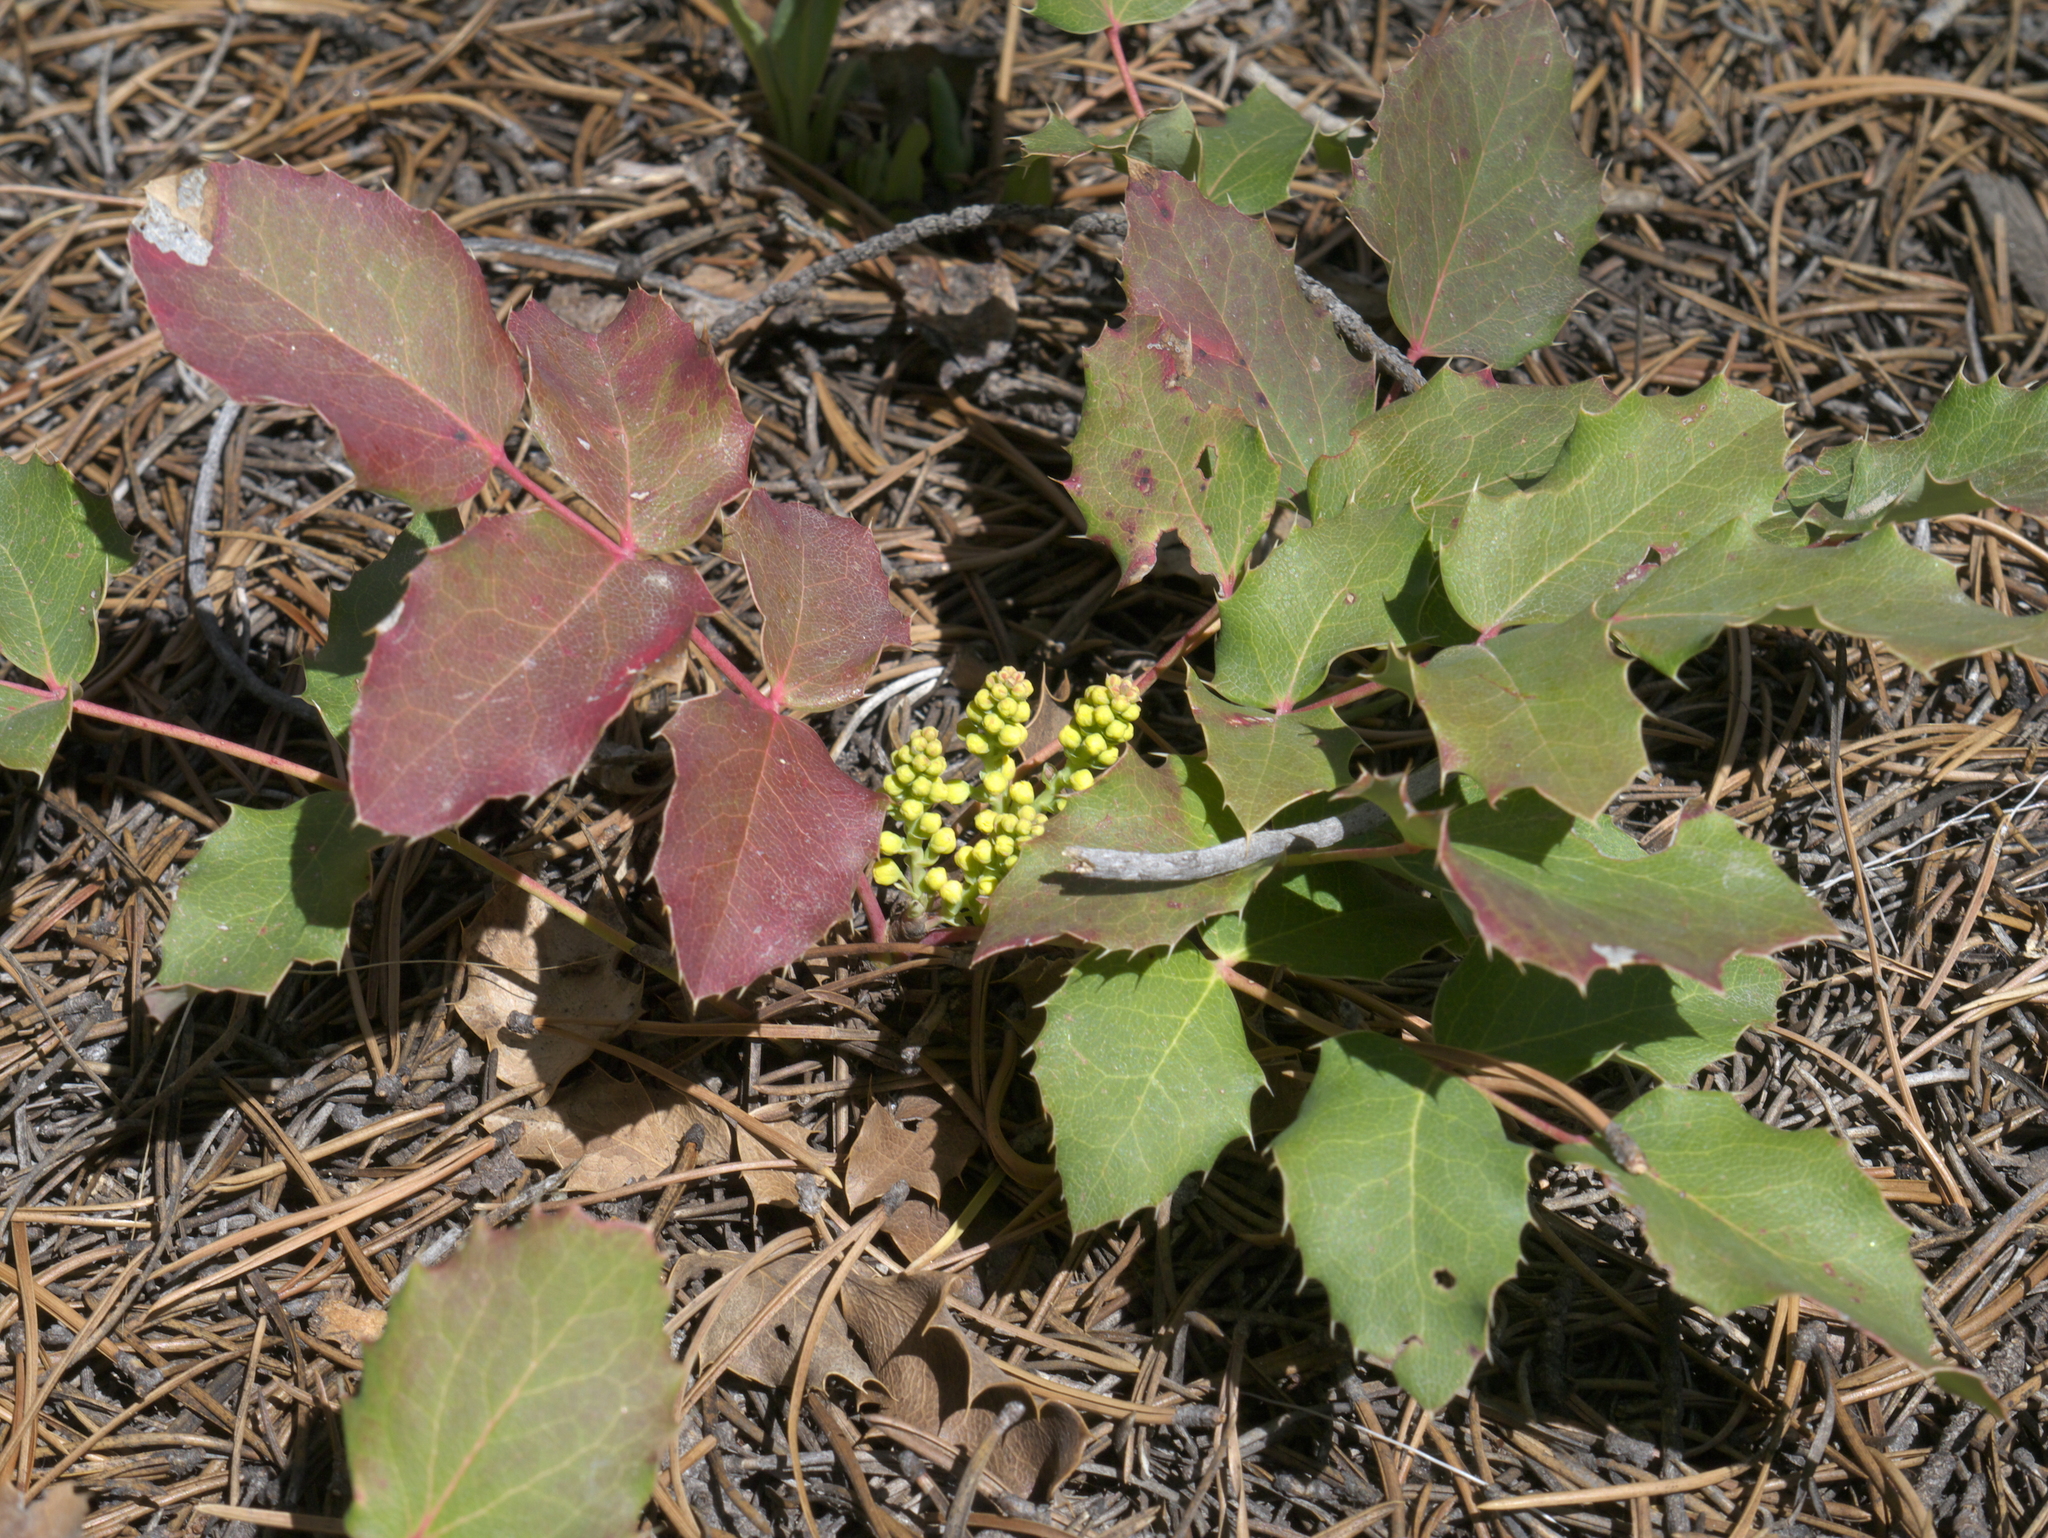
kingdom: Plantae
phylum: Tracheophyta
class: Magnoliopsida
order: Ranunculales
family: Berberidaceae
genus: Mahonia
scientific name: Mahonia repens
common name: Creeping oregon-grape
